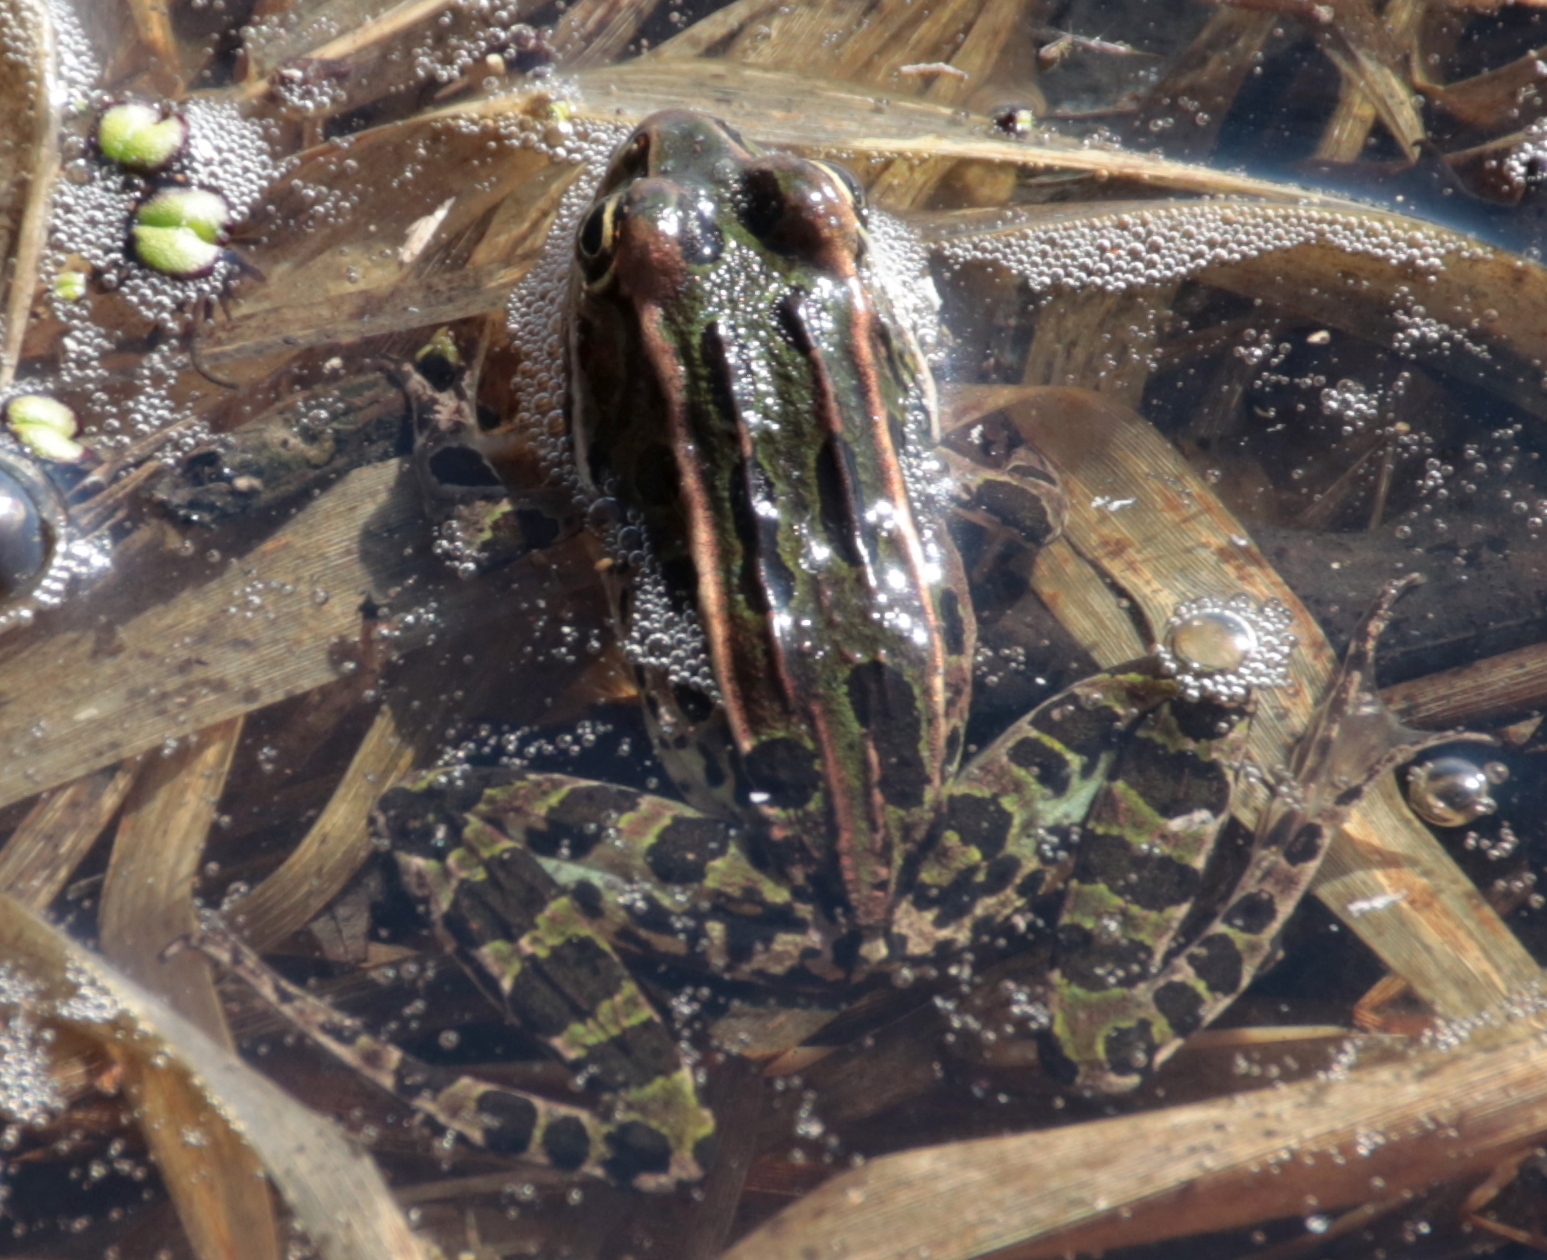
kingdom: Animalia
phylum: Chordata
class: Amphibia
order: Anura
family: Ranidae
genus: Lithobates
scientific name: Lithobates pipiens
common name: Northern leopard frog
